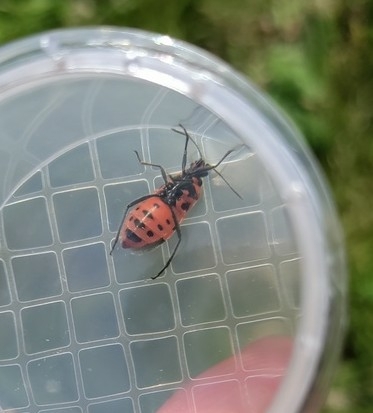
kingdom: Animalia
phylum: Arthropoda
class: Insecta
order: Hemiptera
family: Rhopalidae
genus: Corizus
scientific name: Corizus hyoscyami
